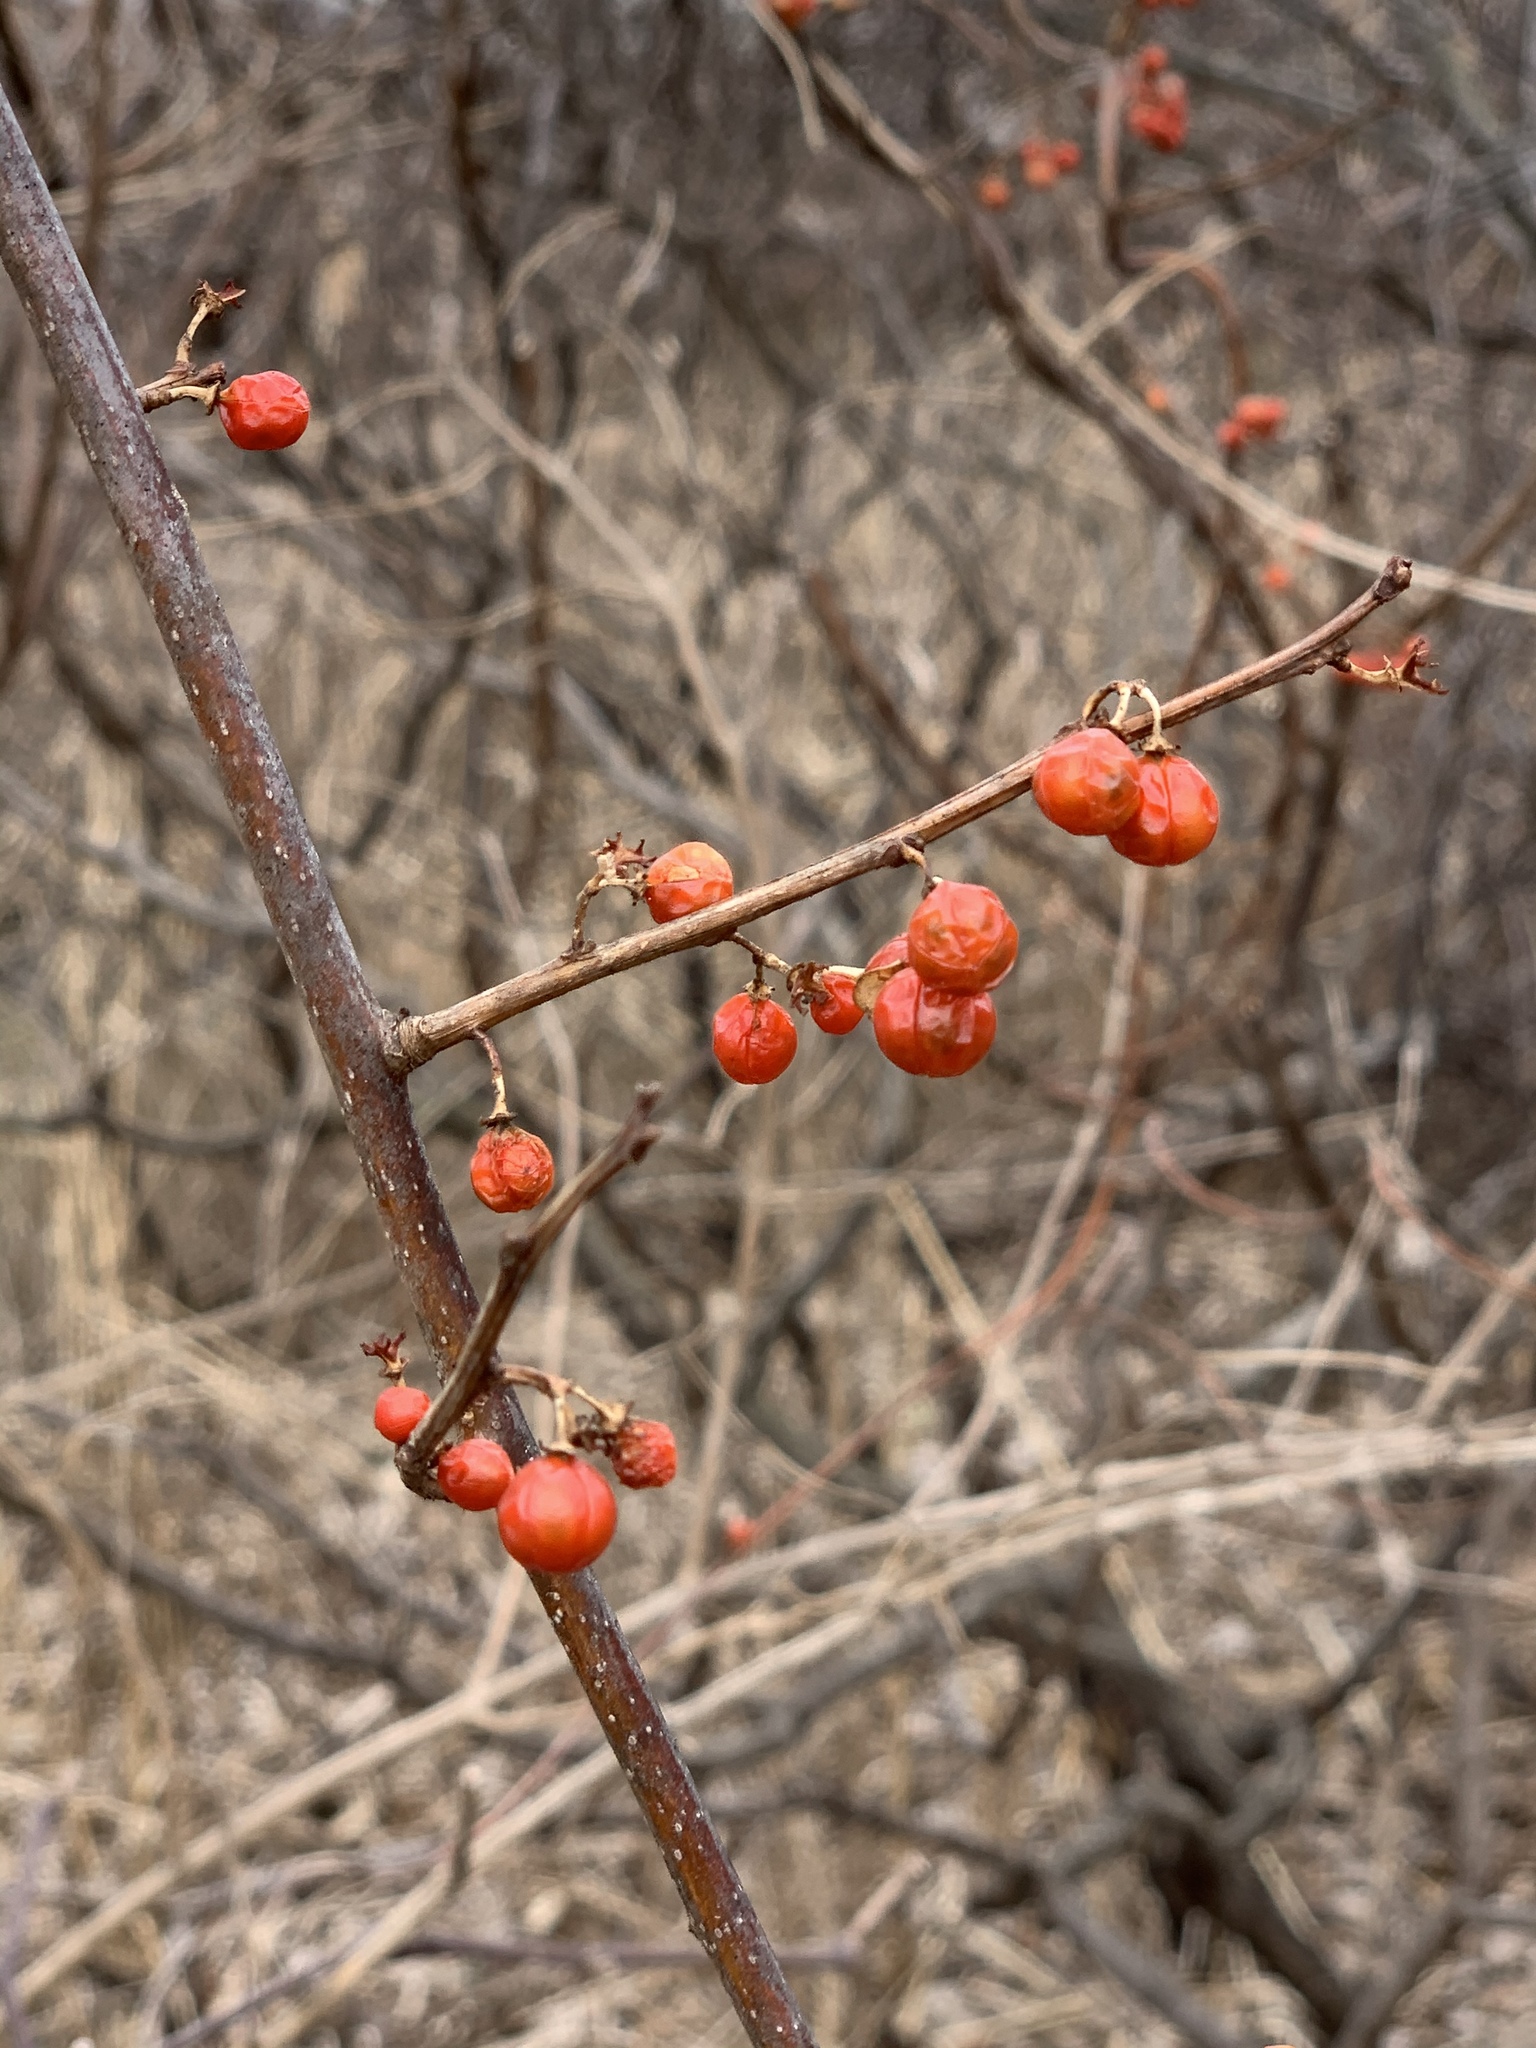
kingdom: Plantae
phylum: Tracheophyta
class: Magnoliopsida
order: Celastrales
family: Celastraceae
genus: Celastrus
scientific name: Celastrus orbiculatus
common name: Oriental bittersweet
